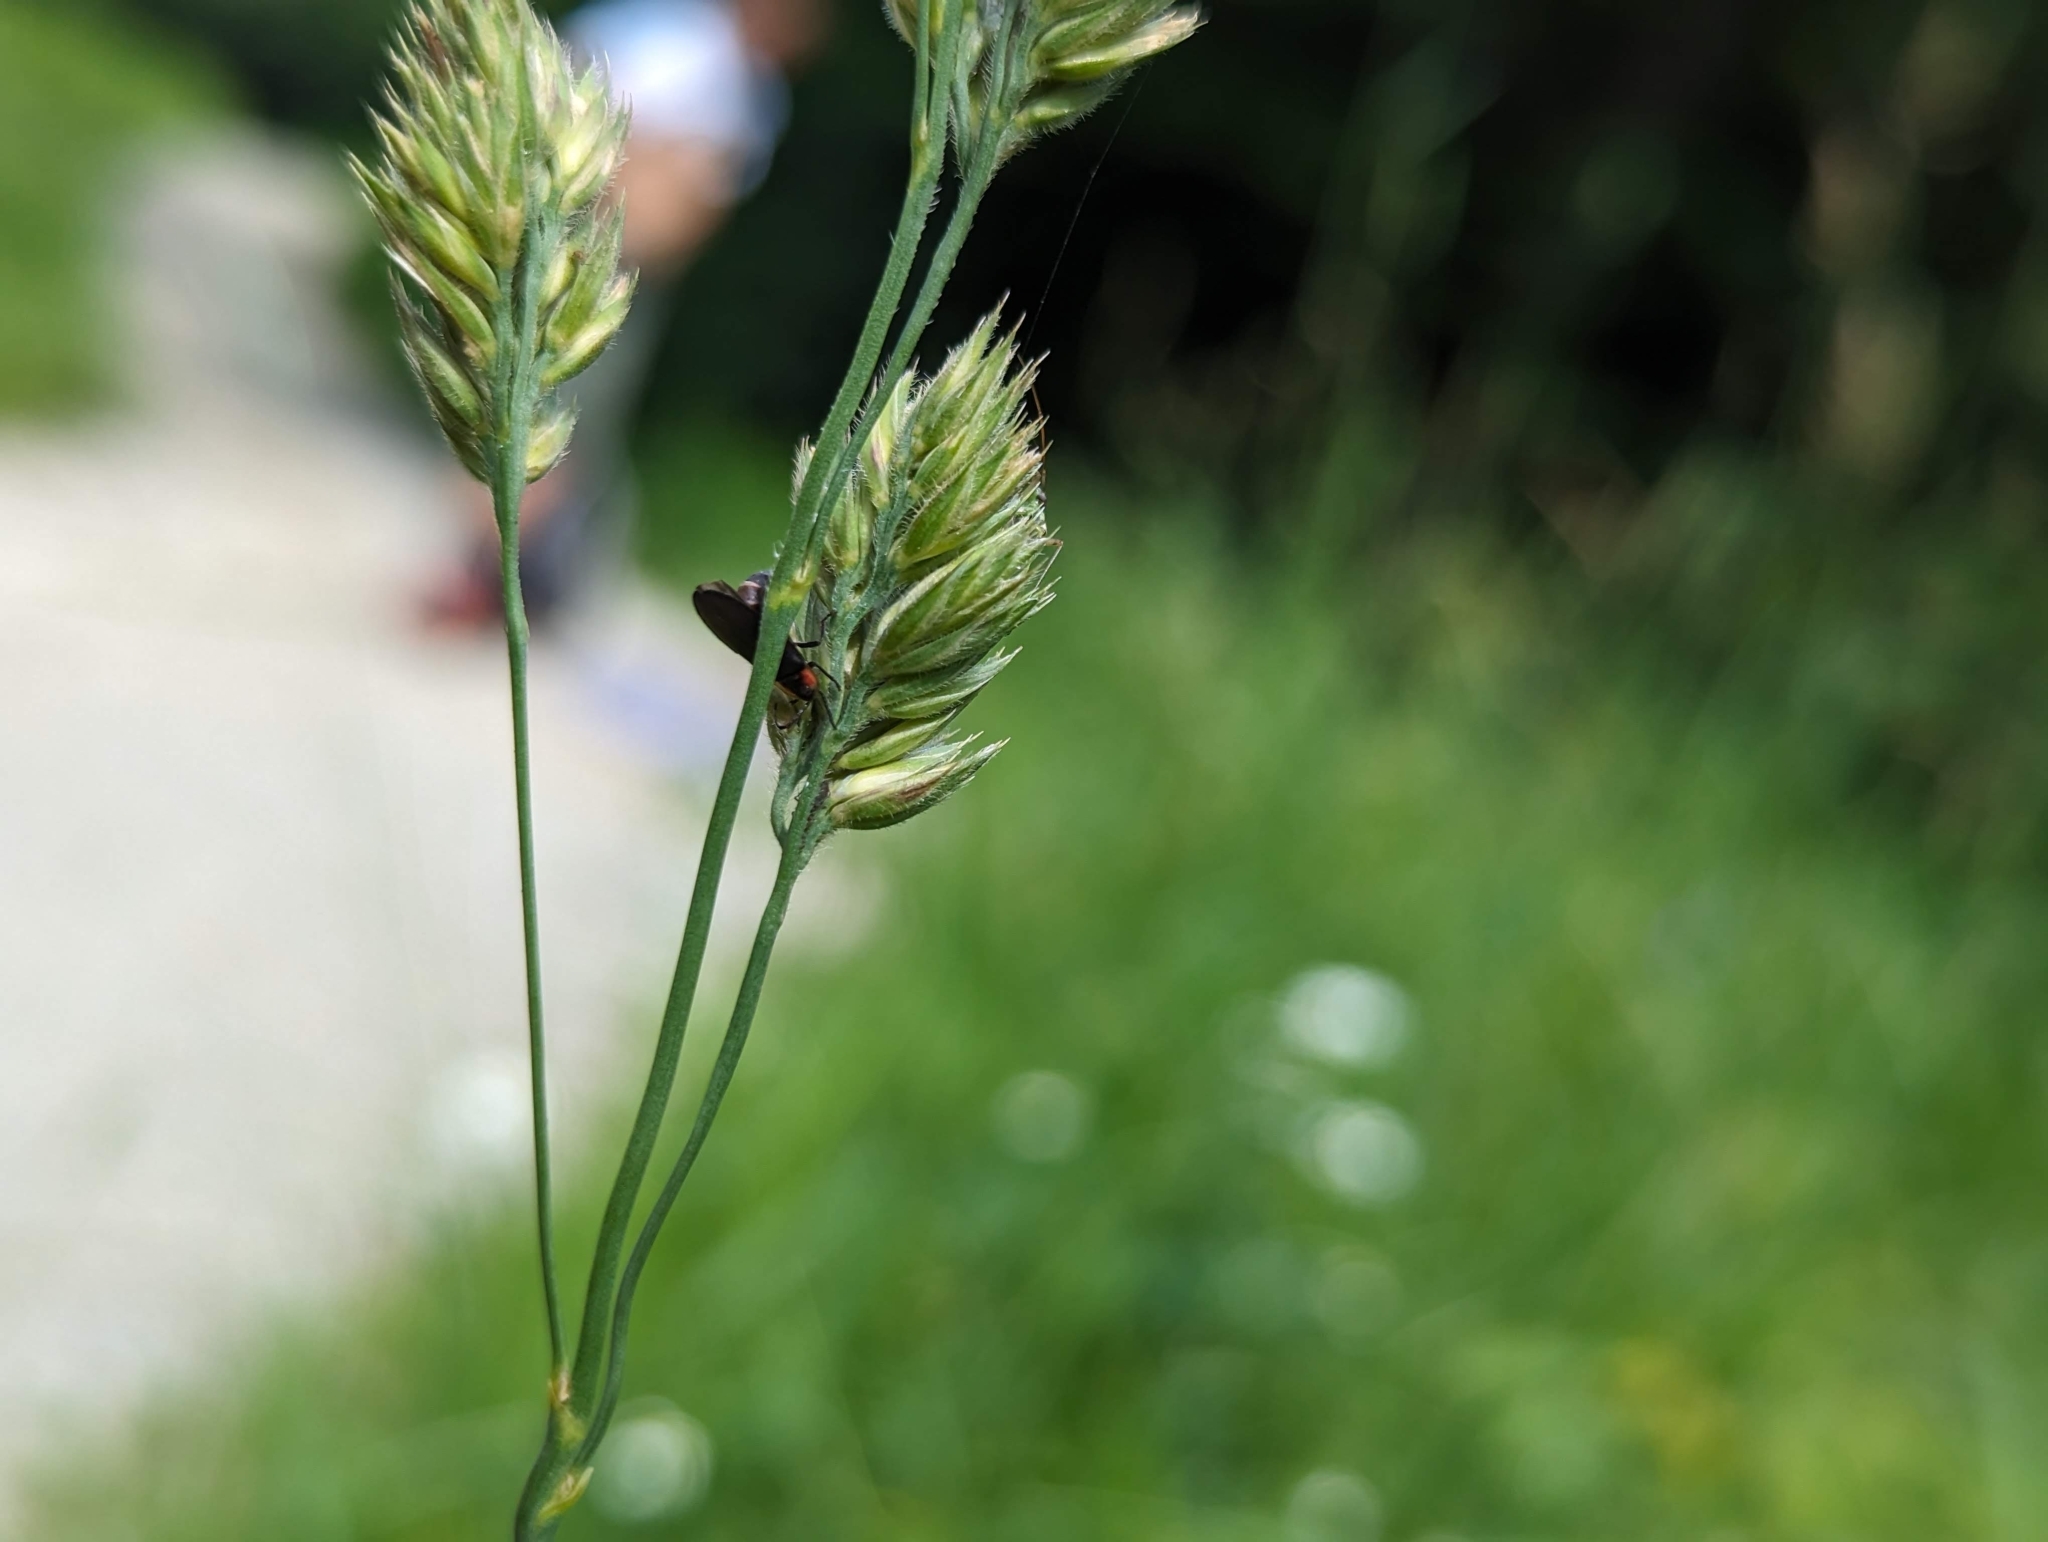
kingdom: Plantae
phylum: Tracheophyta
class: Liliopsida
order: Poales
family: Poaceae
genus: Dactylis
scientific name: Dactylis glomerata
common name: Orchardgrass
